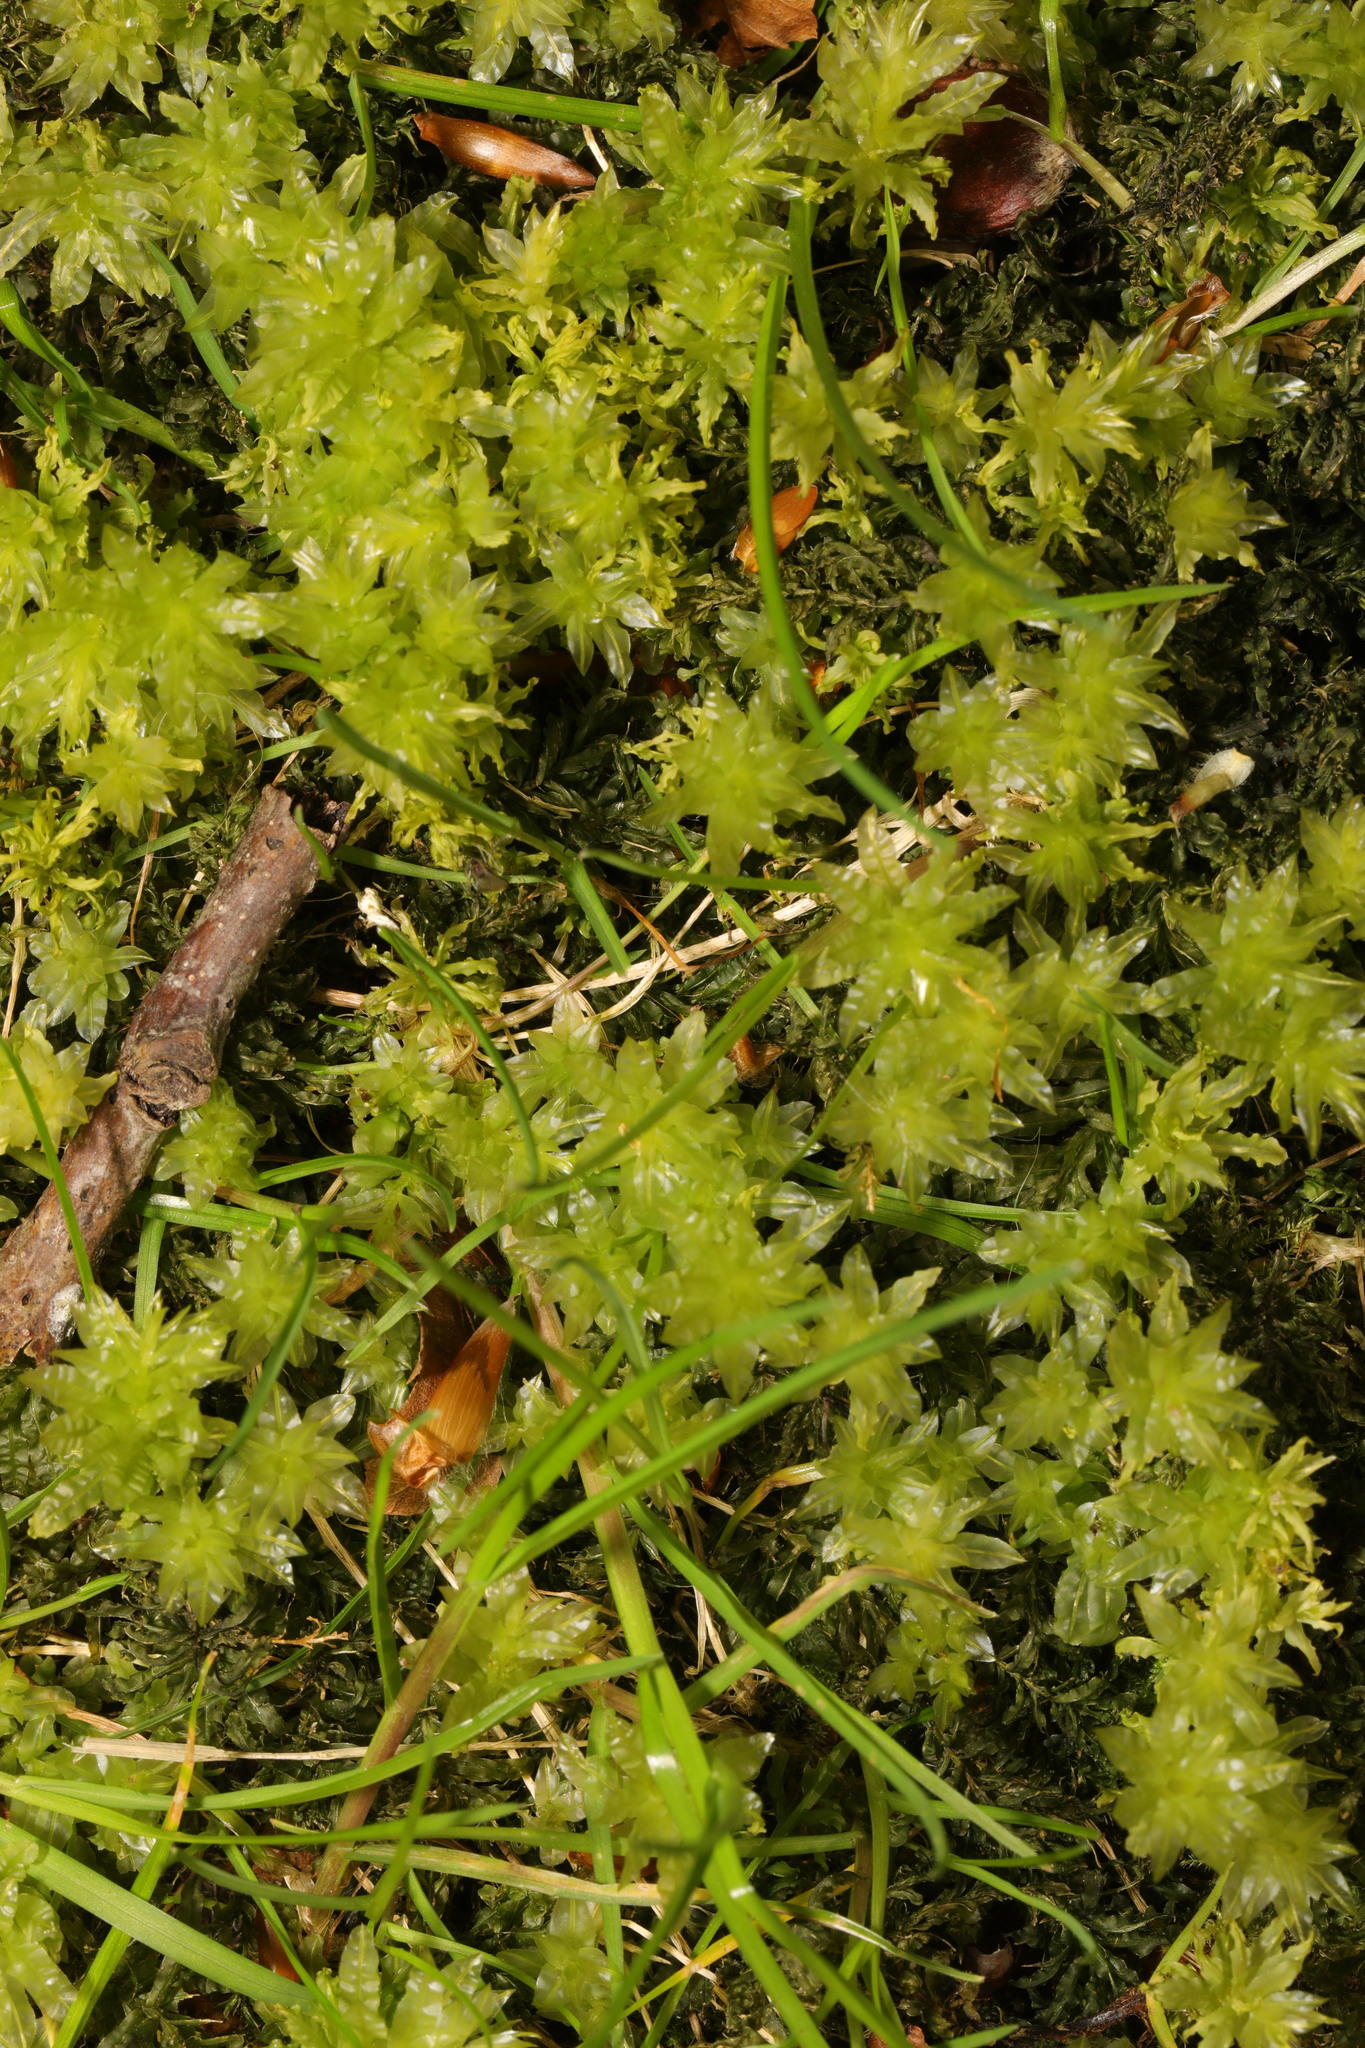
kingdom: Plantae
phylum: Bryophyta
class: Bryopsida
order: Bryales
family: Mniaceae
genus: Plagiomnium
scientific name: Plagiomnium undulatum
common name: Hart's-tongue thyme-moss
